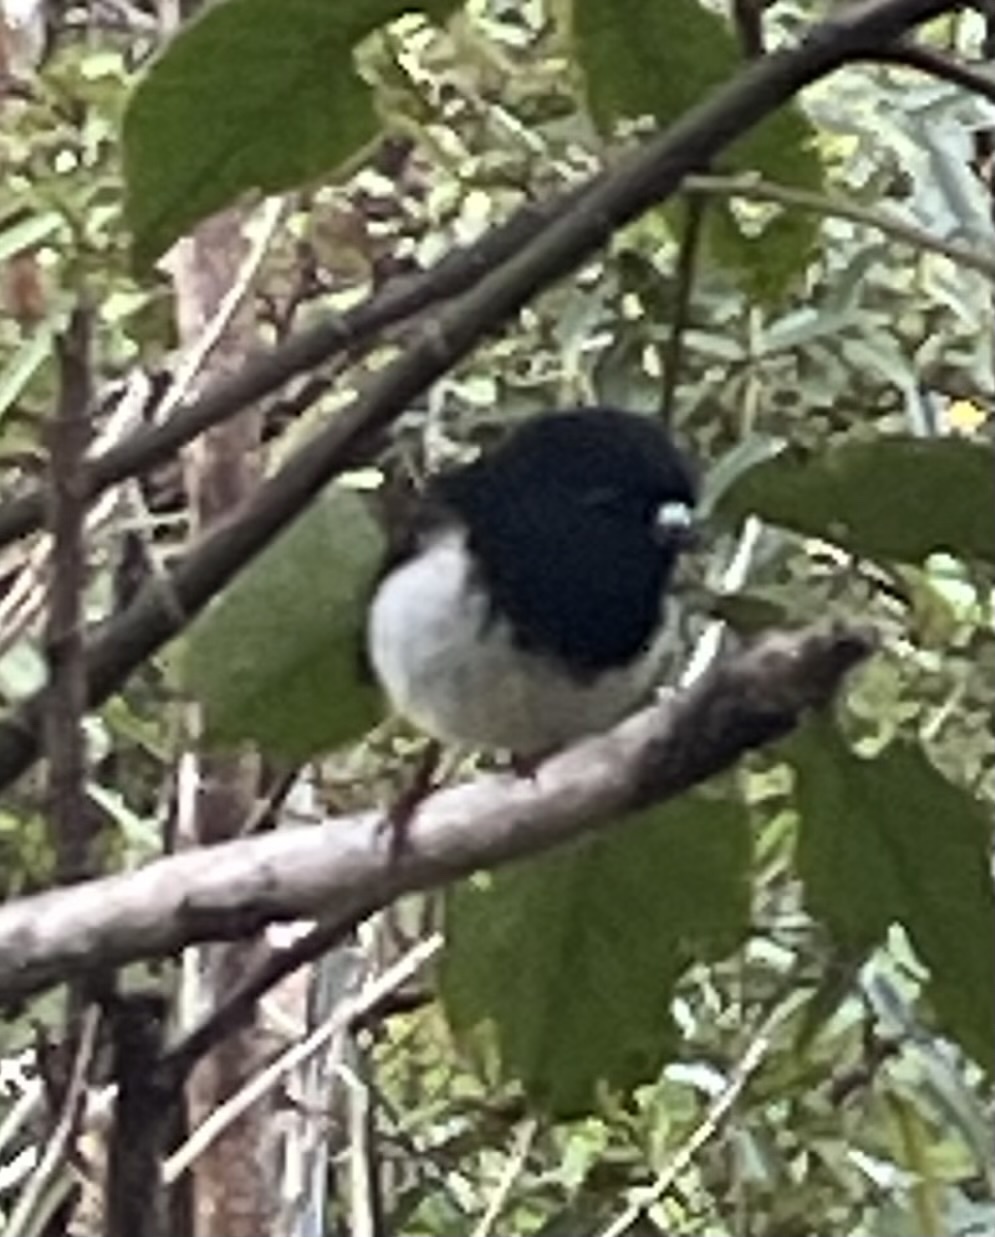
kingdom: Animalia
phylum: Chordata
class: Aves
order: Passeriformes
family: Petroicidae
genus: Petroica
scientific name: Petroica macrocephala
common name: Tomtit
